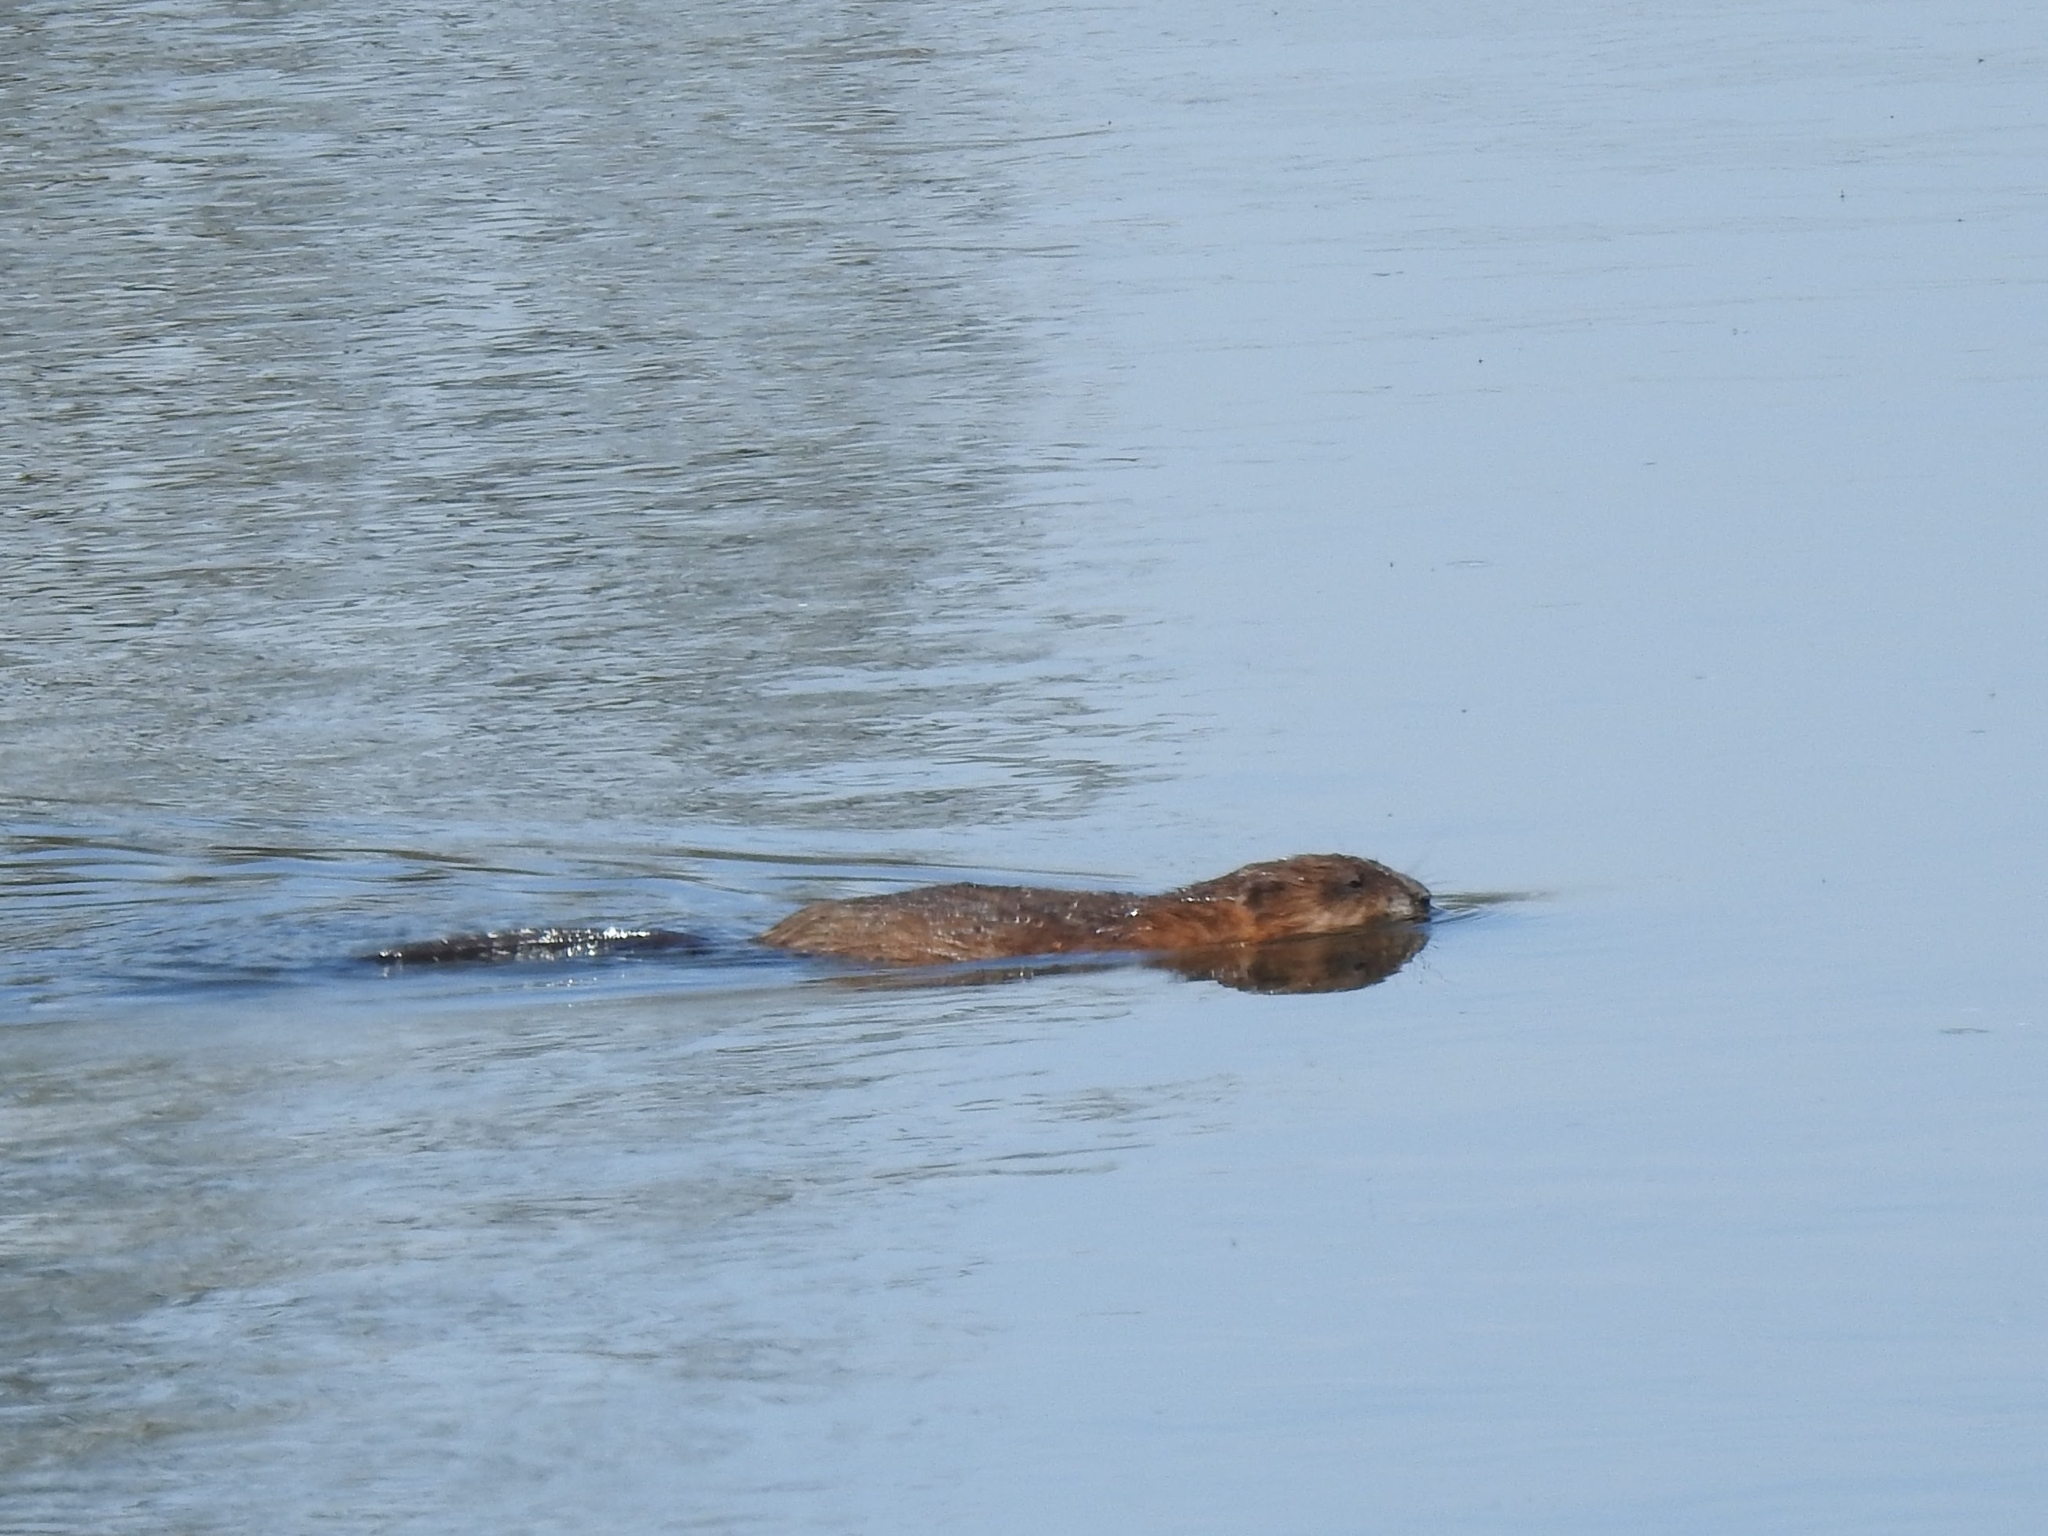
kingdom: Animalia
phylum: Chordata
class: Mammalia
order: Rodentia
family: Cricetidae
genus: Ondatra
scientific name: Ondatra zibethicus
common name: Muskrat
